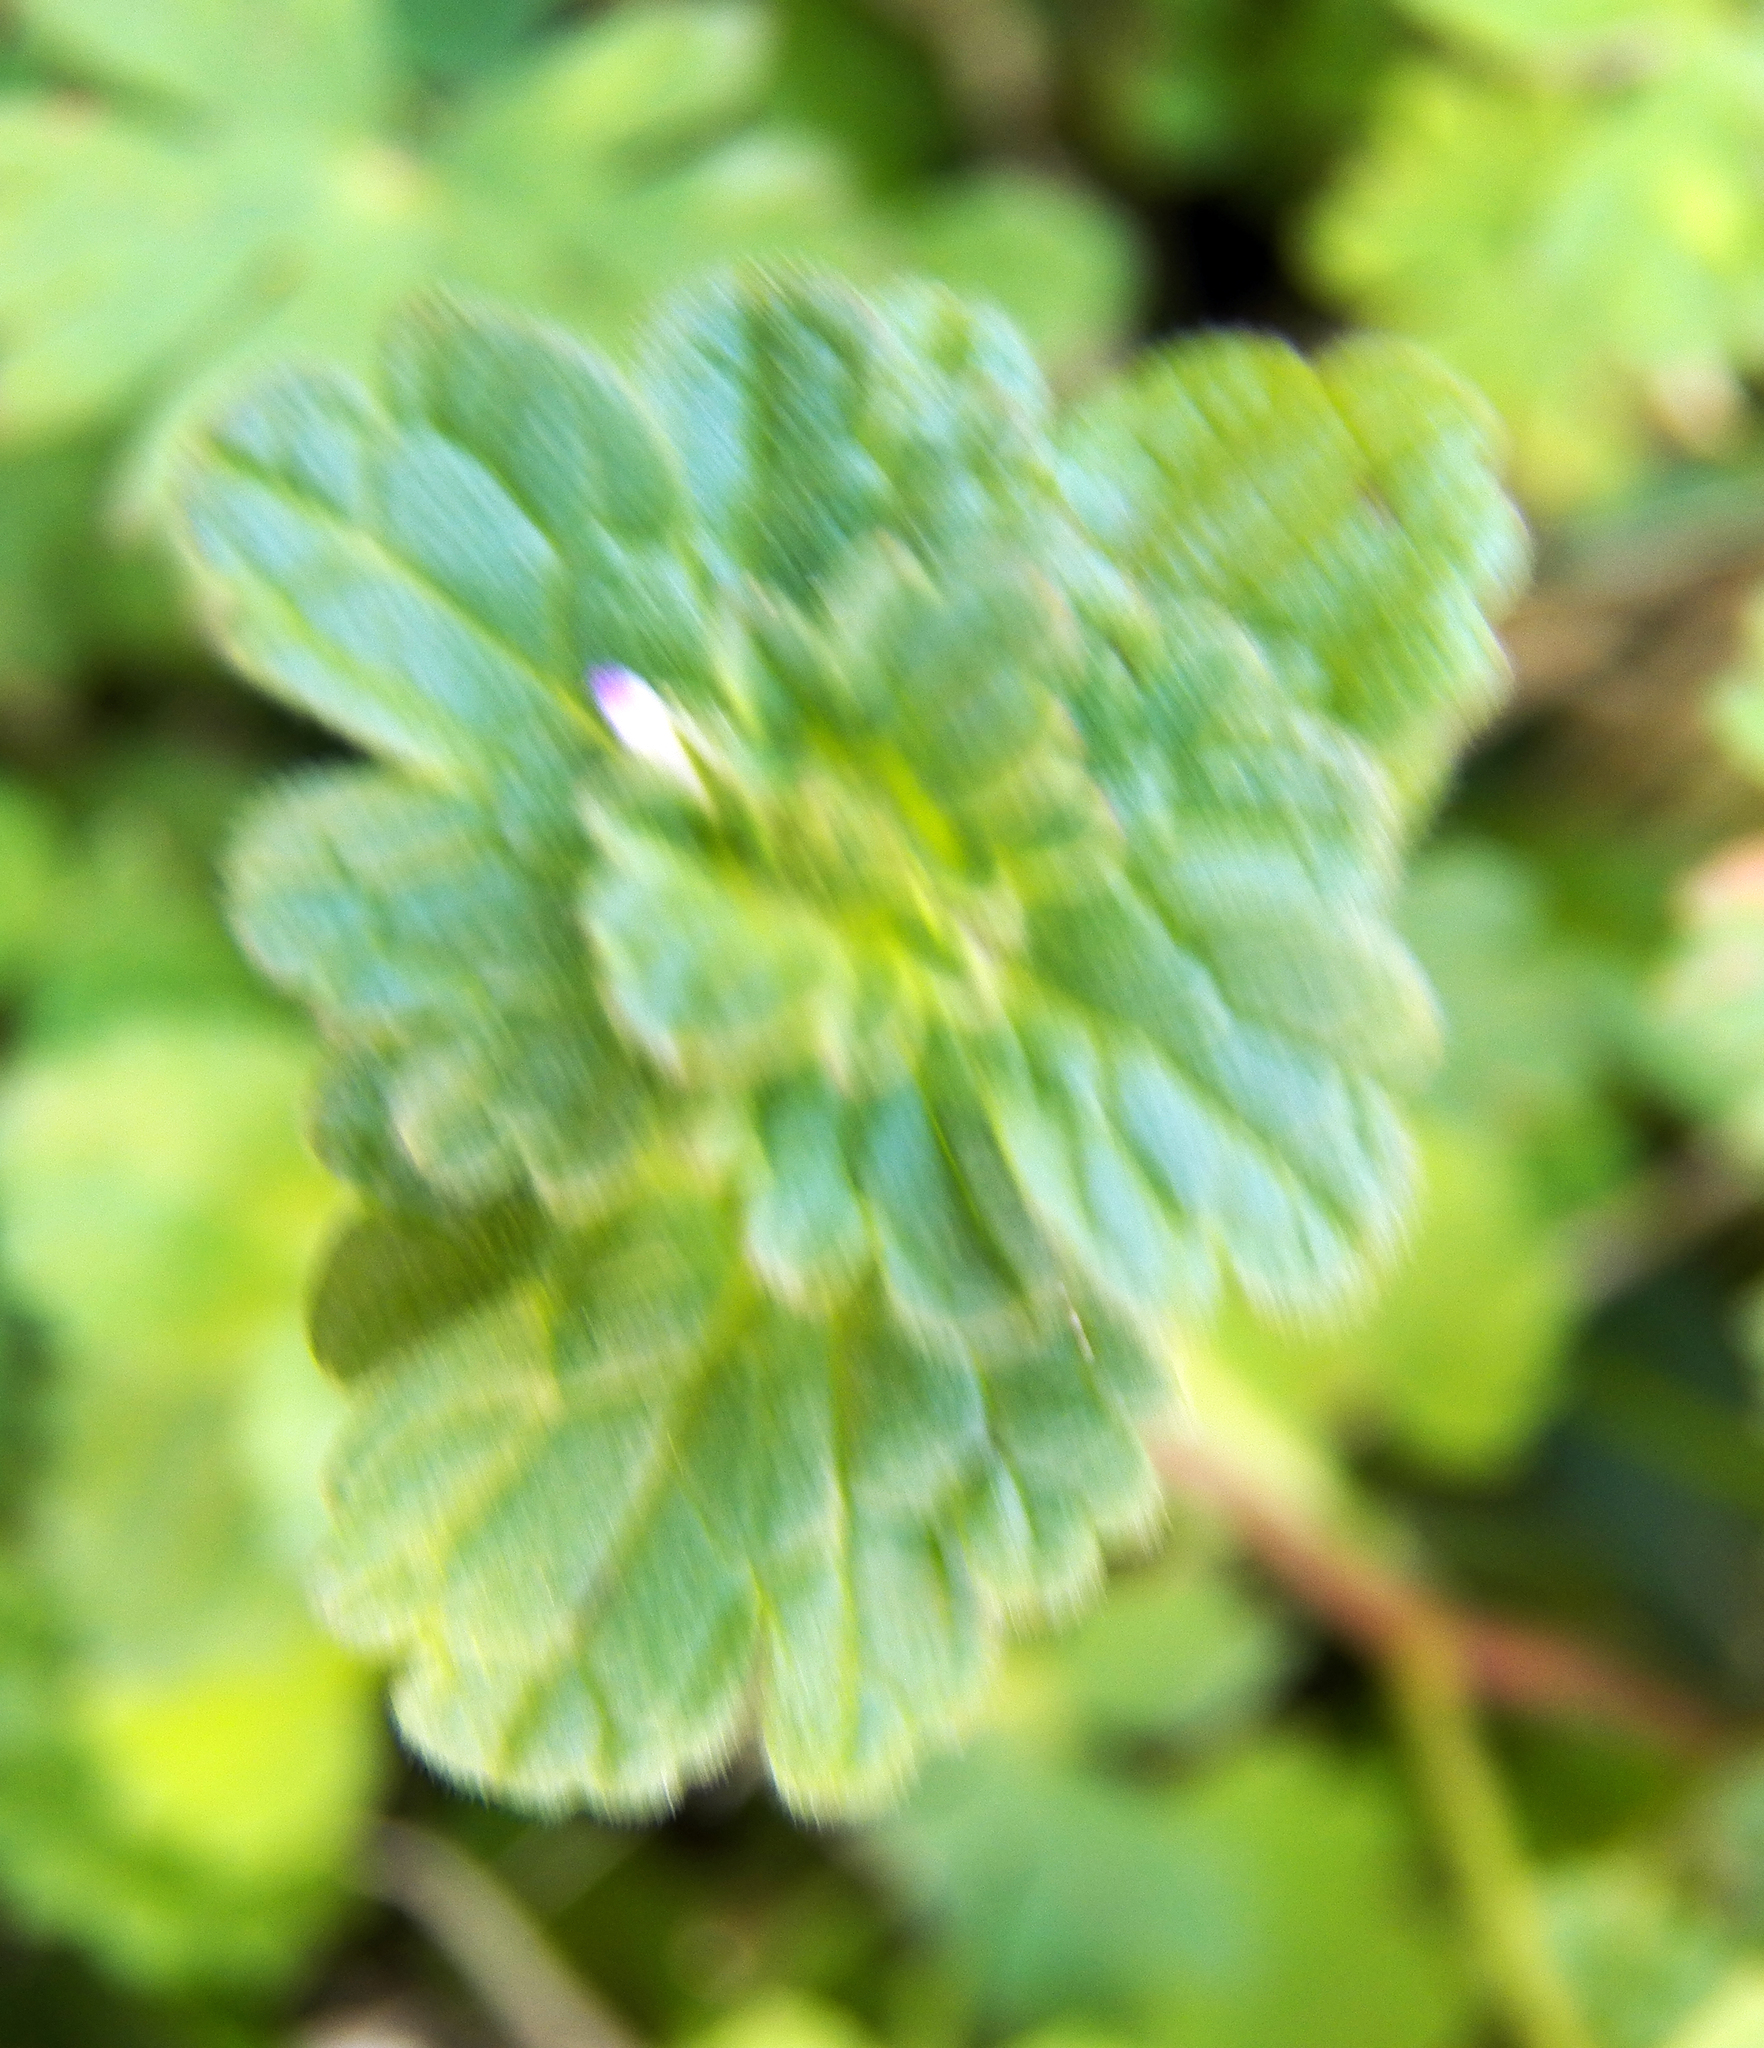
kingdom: Plantae
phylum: Tracheophyta
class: Magnoliopsida
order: Lamiales
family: Lamiaceae
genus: Lamium
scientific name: Lamium amplexicaule
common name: Henbit dead-nettle
